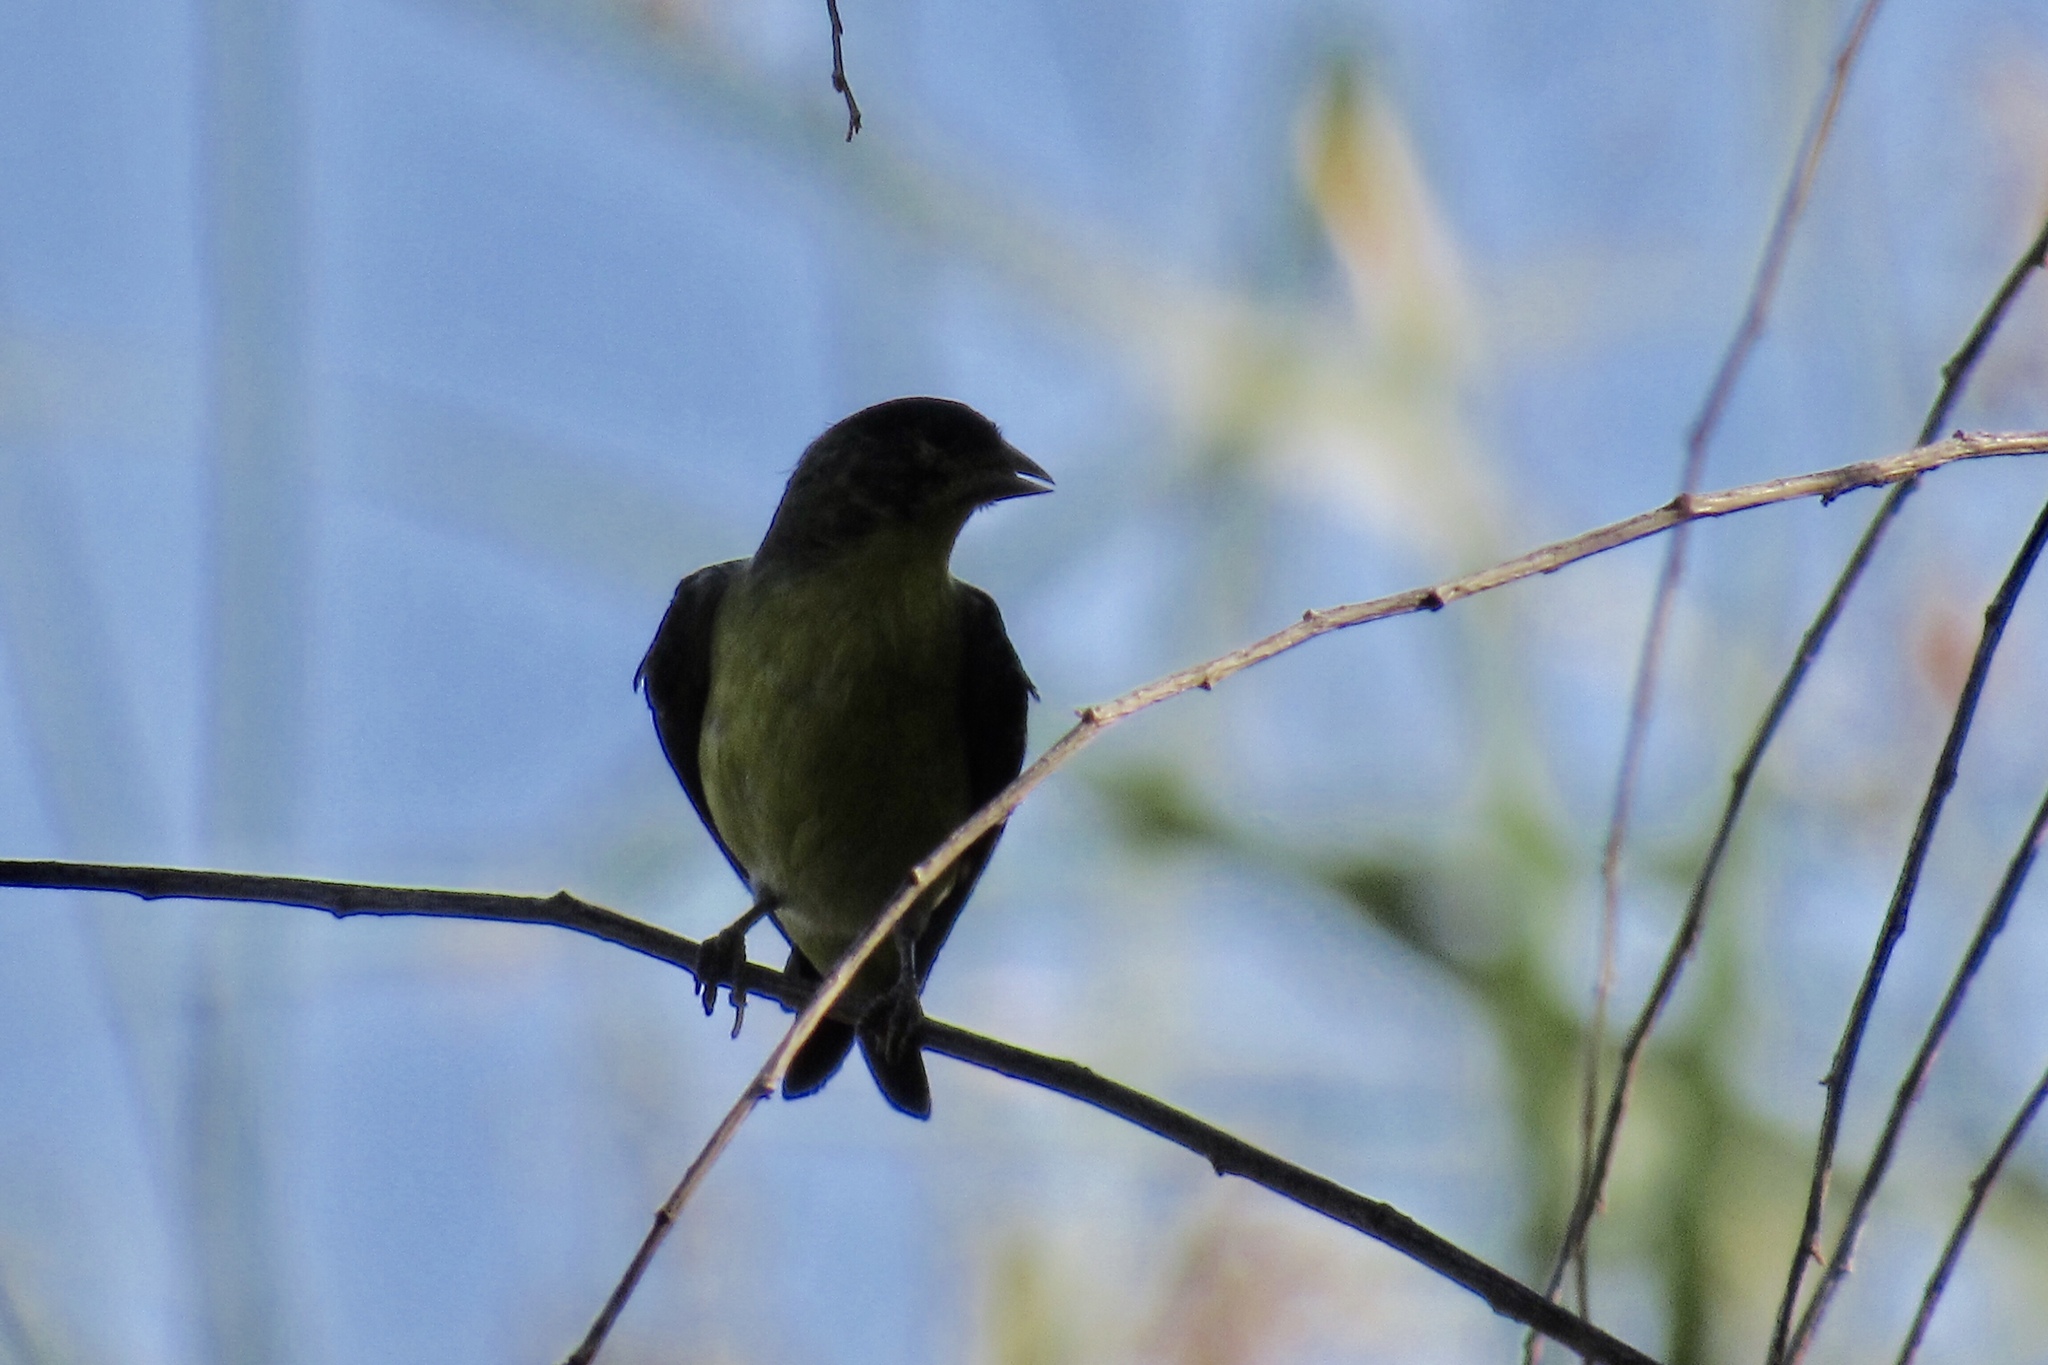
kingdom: Animalia
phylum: Chordata
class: Aves
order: Passeriformes
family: Fringillidae
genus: Spinus
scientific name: Spinus psaltria
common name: Lesser goldfinch
